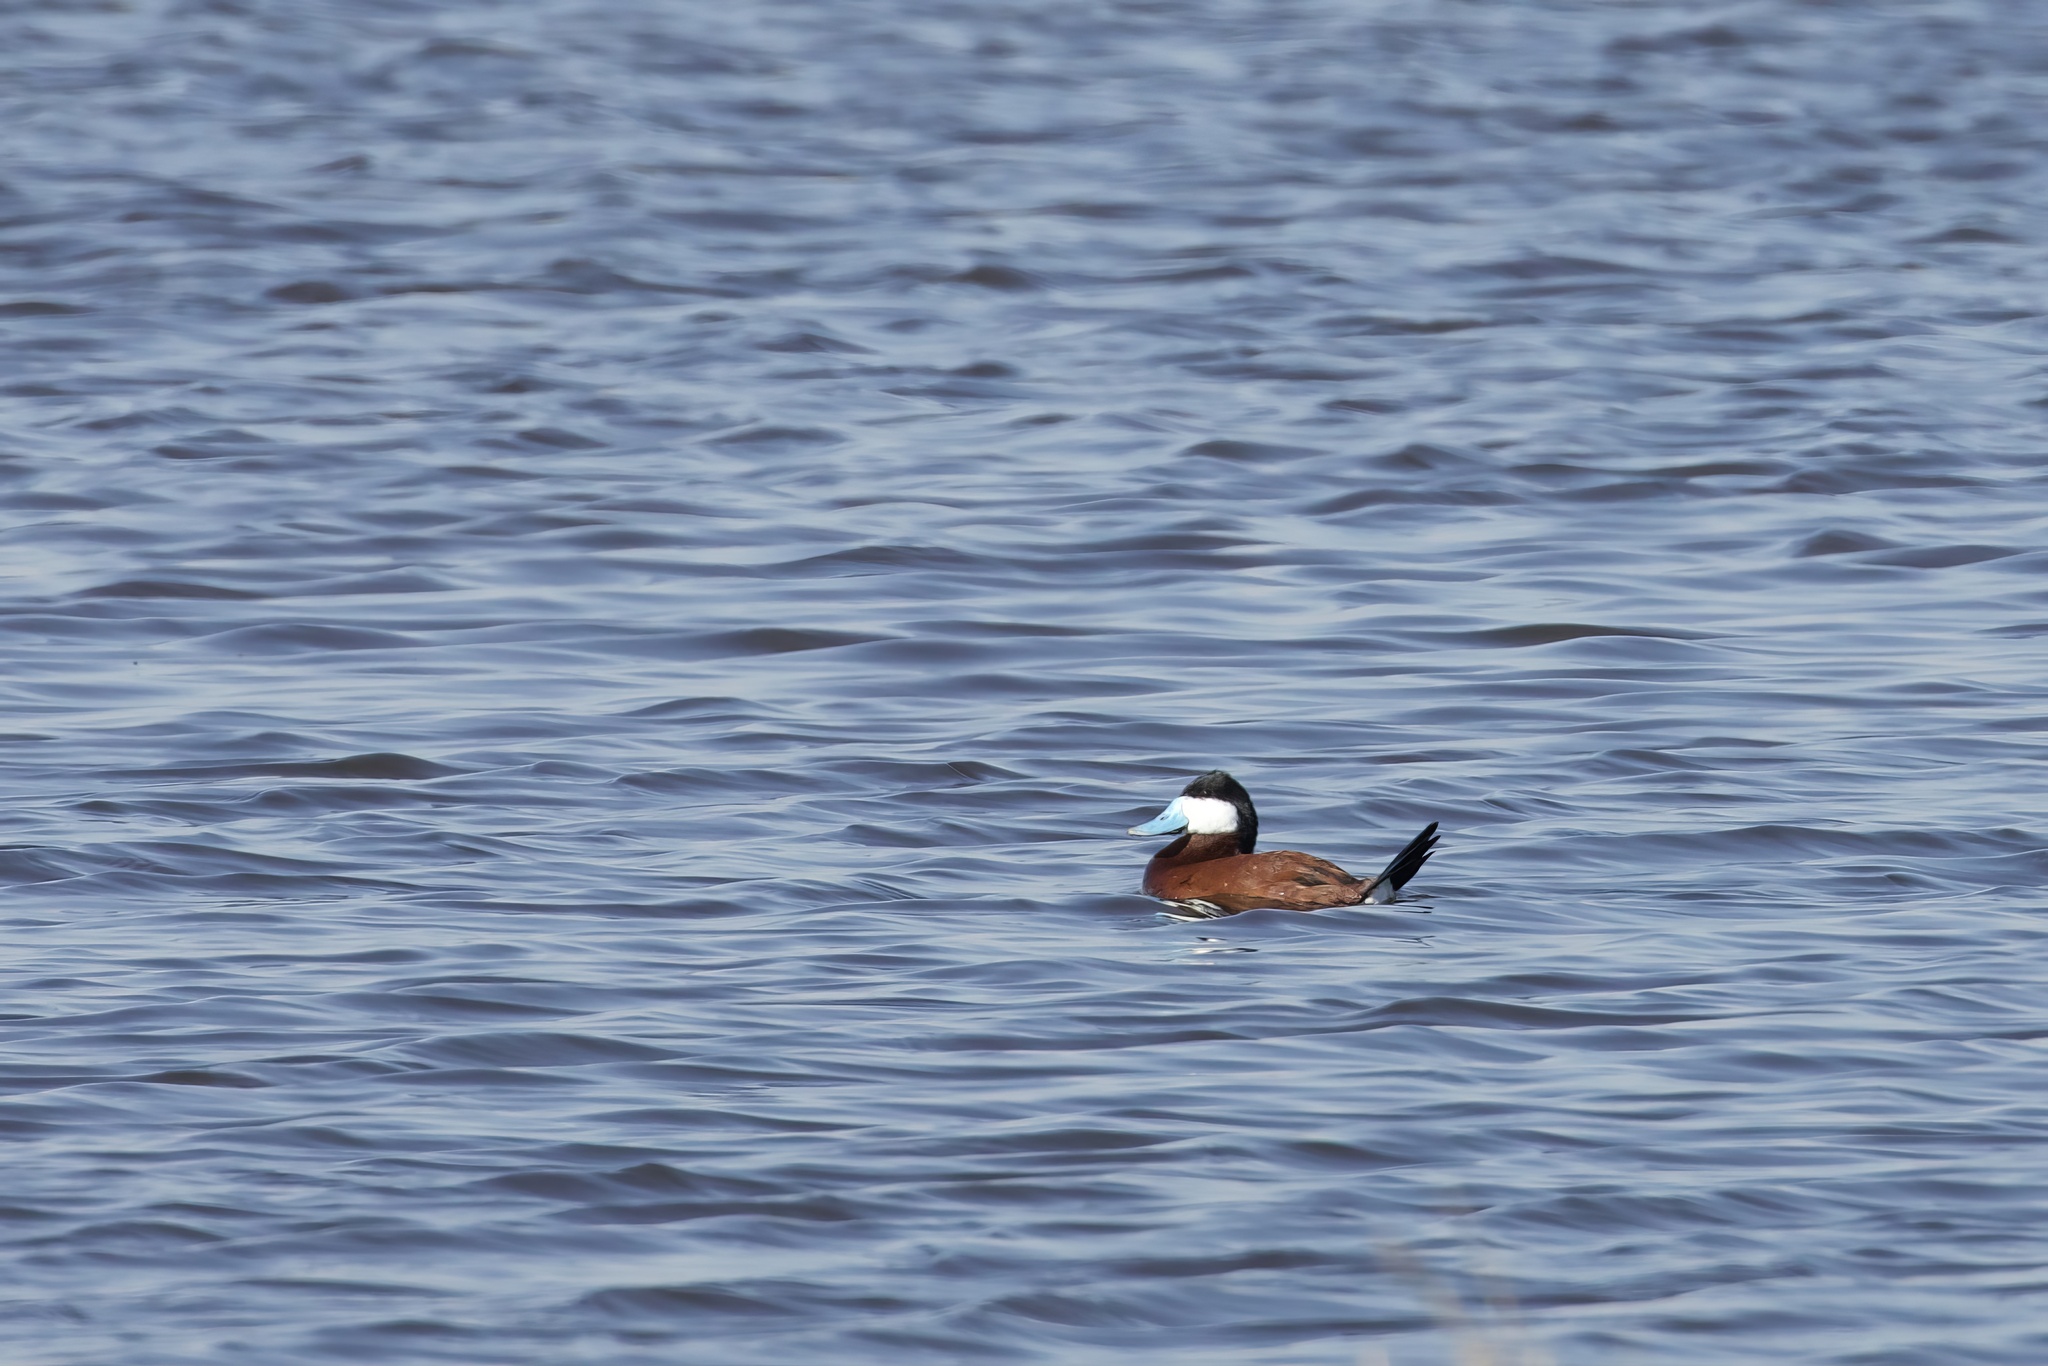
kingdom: Animalia
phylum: Chordata
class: Aves
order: Anseriformes
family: Anatidae
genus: Oxyura
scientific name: Oxyura jamaicensis
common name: Ruddy duck
